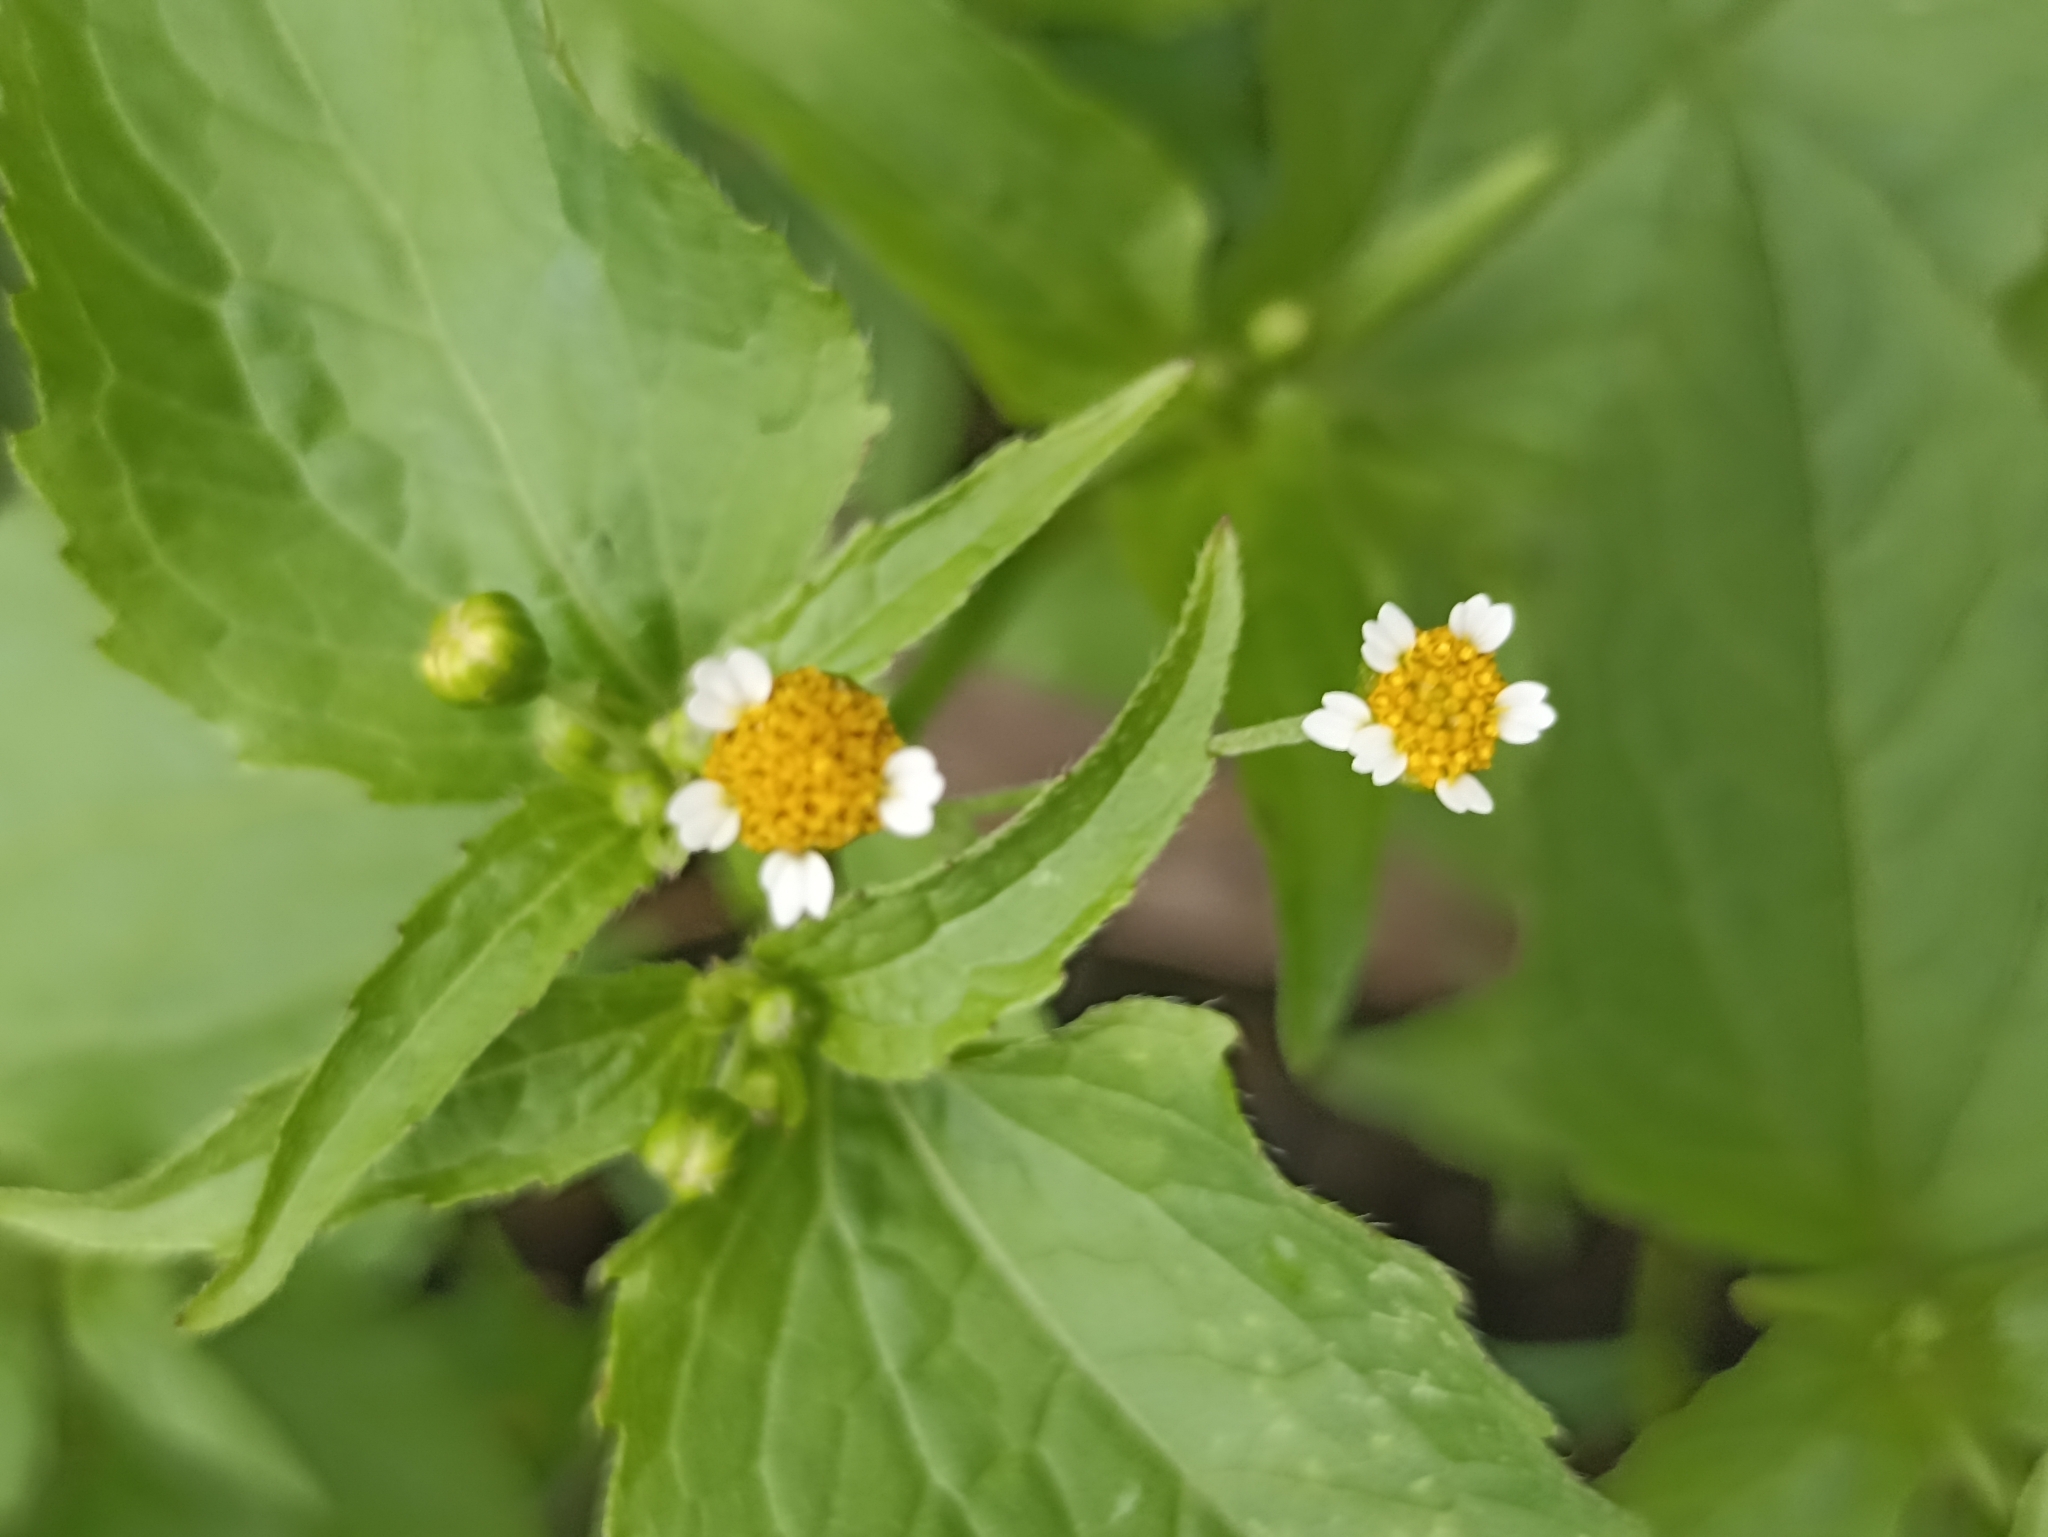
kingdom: Plantae
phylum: Tracheophyta
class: Magnoliopsida
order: Asterales
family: Asteraceae
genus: Galinsoga
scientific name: Galinsoga parviflora
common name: Gallant soldier
